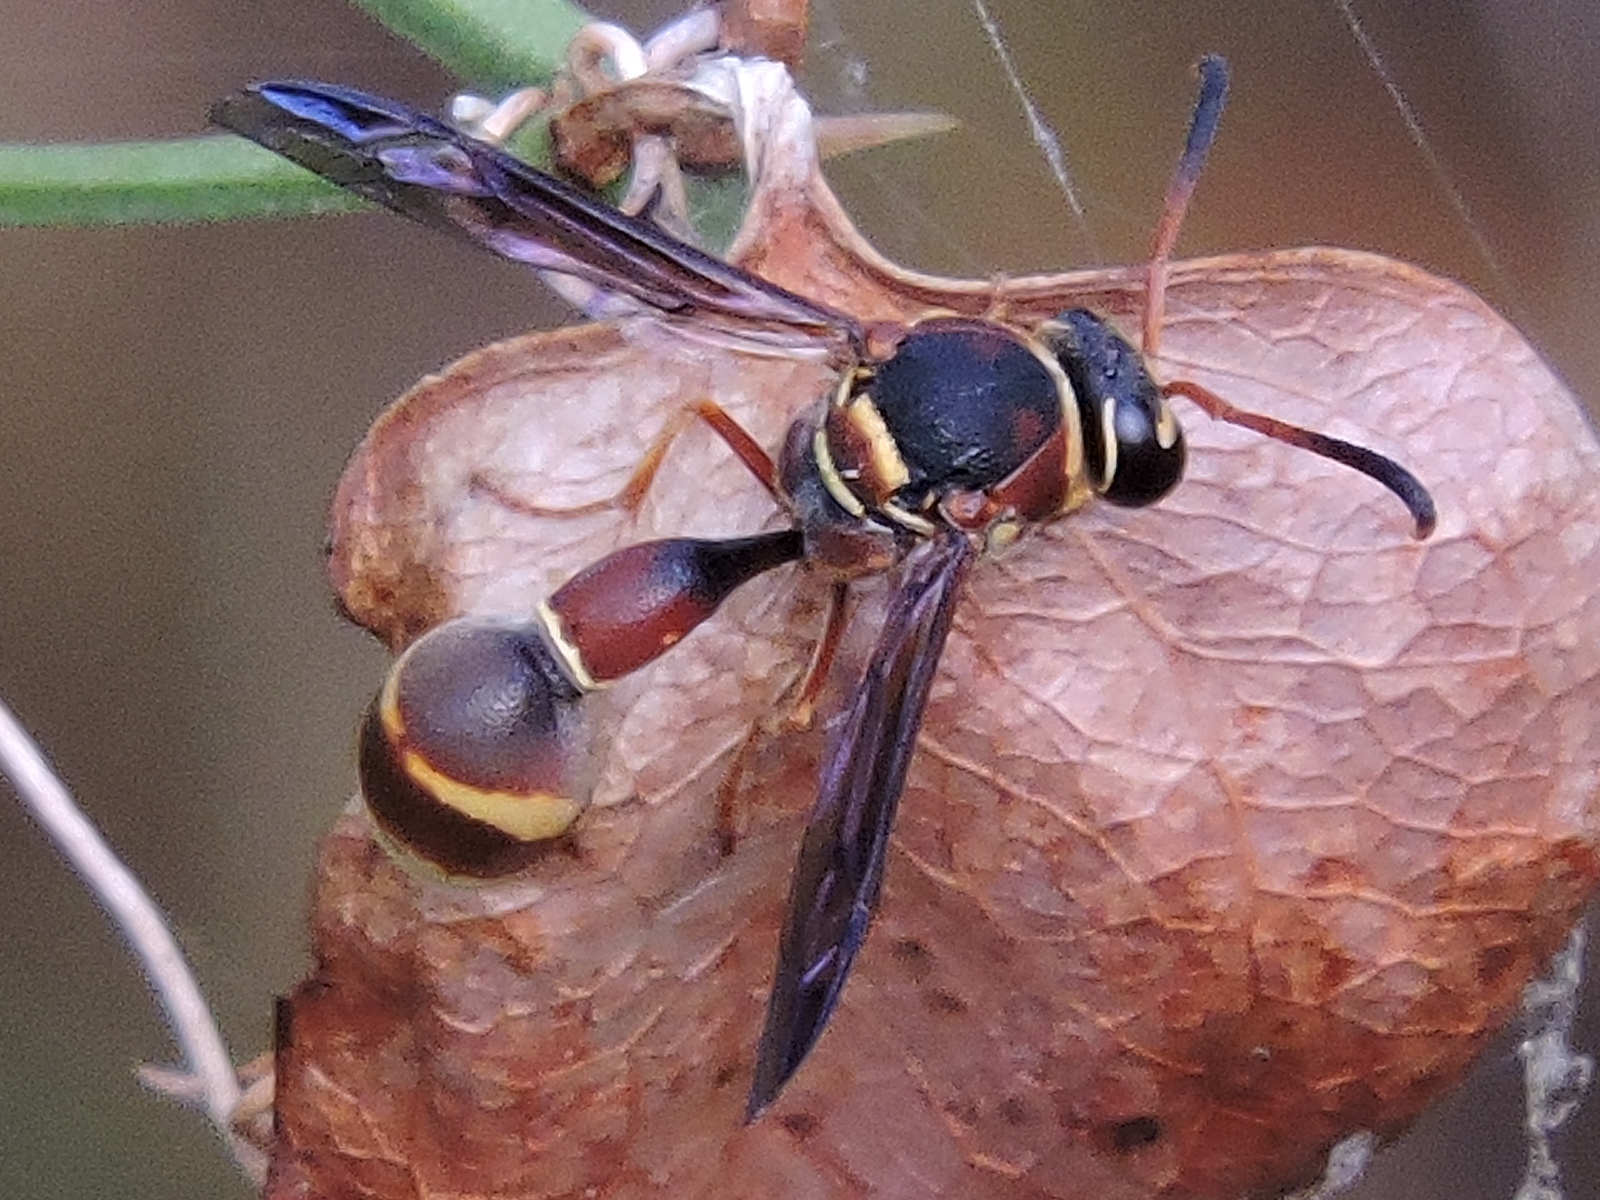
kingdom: Animalia
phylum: Arthropoda
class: Insecta
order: Hymenoptera
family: Vespidae
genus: Eumenes
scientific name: Eumenes smithii
